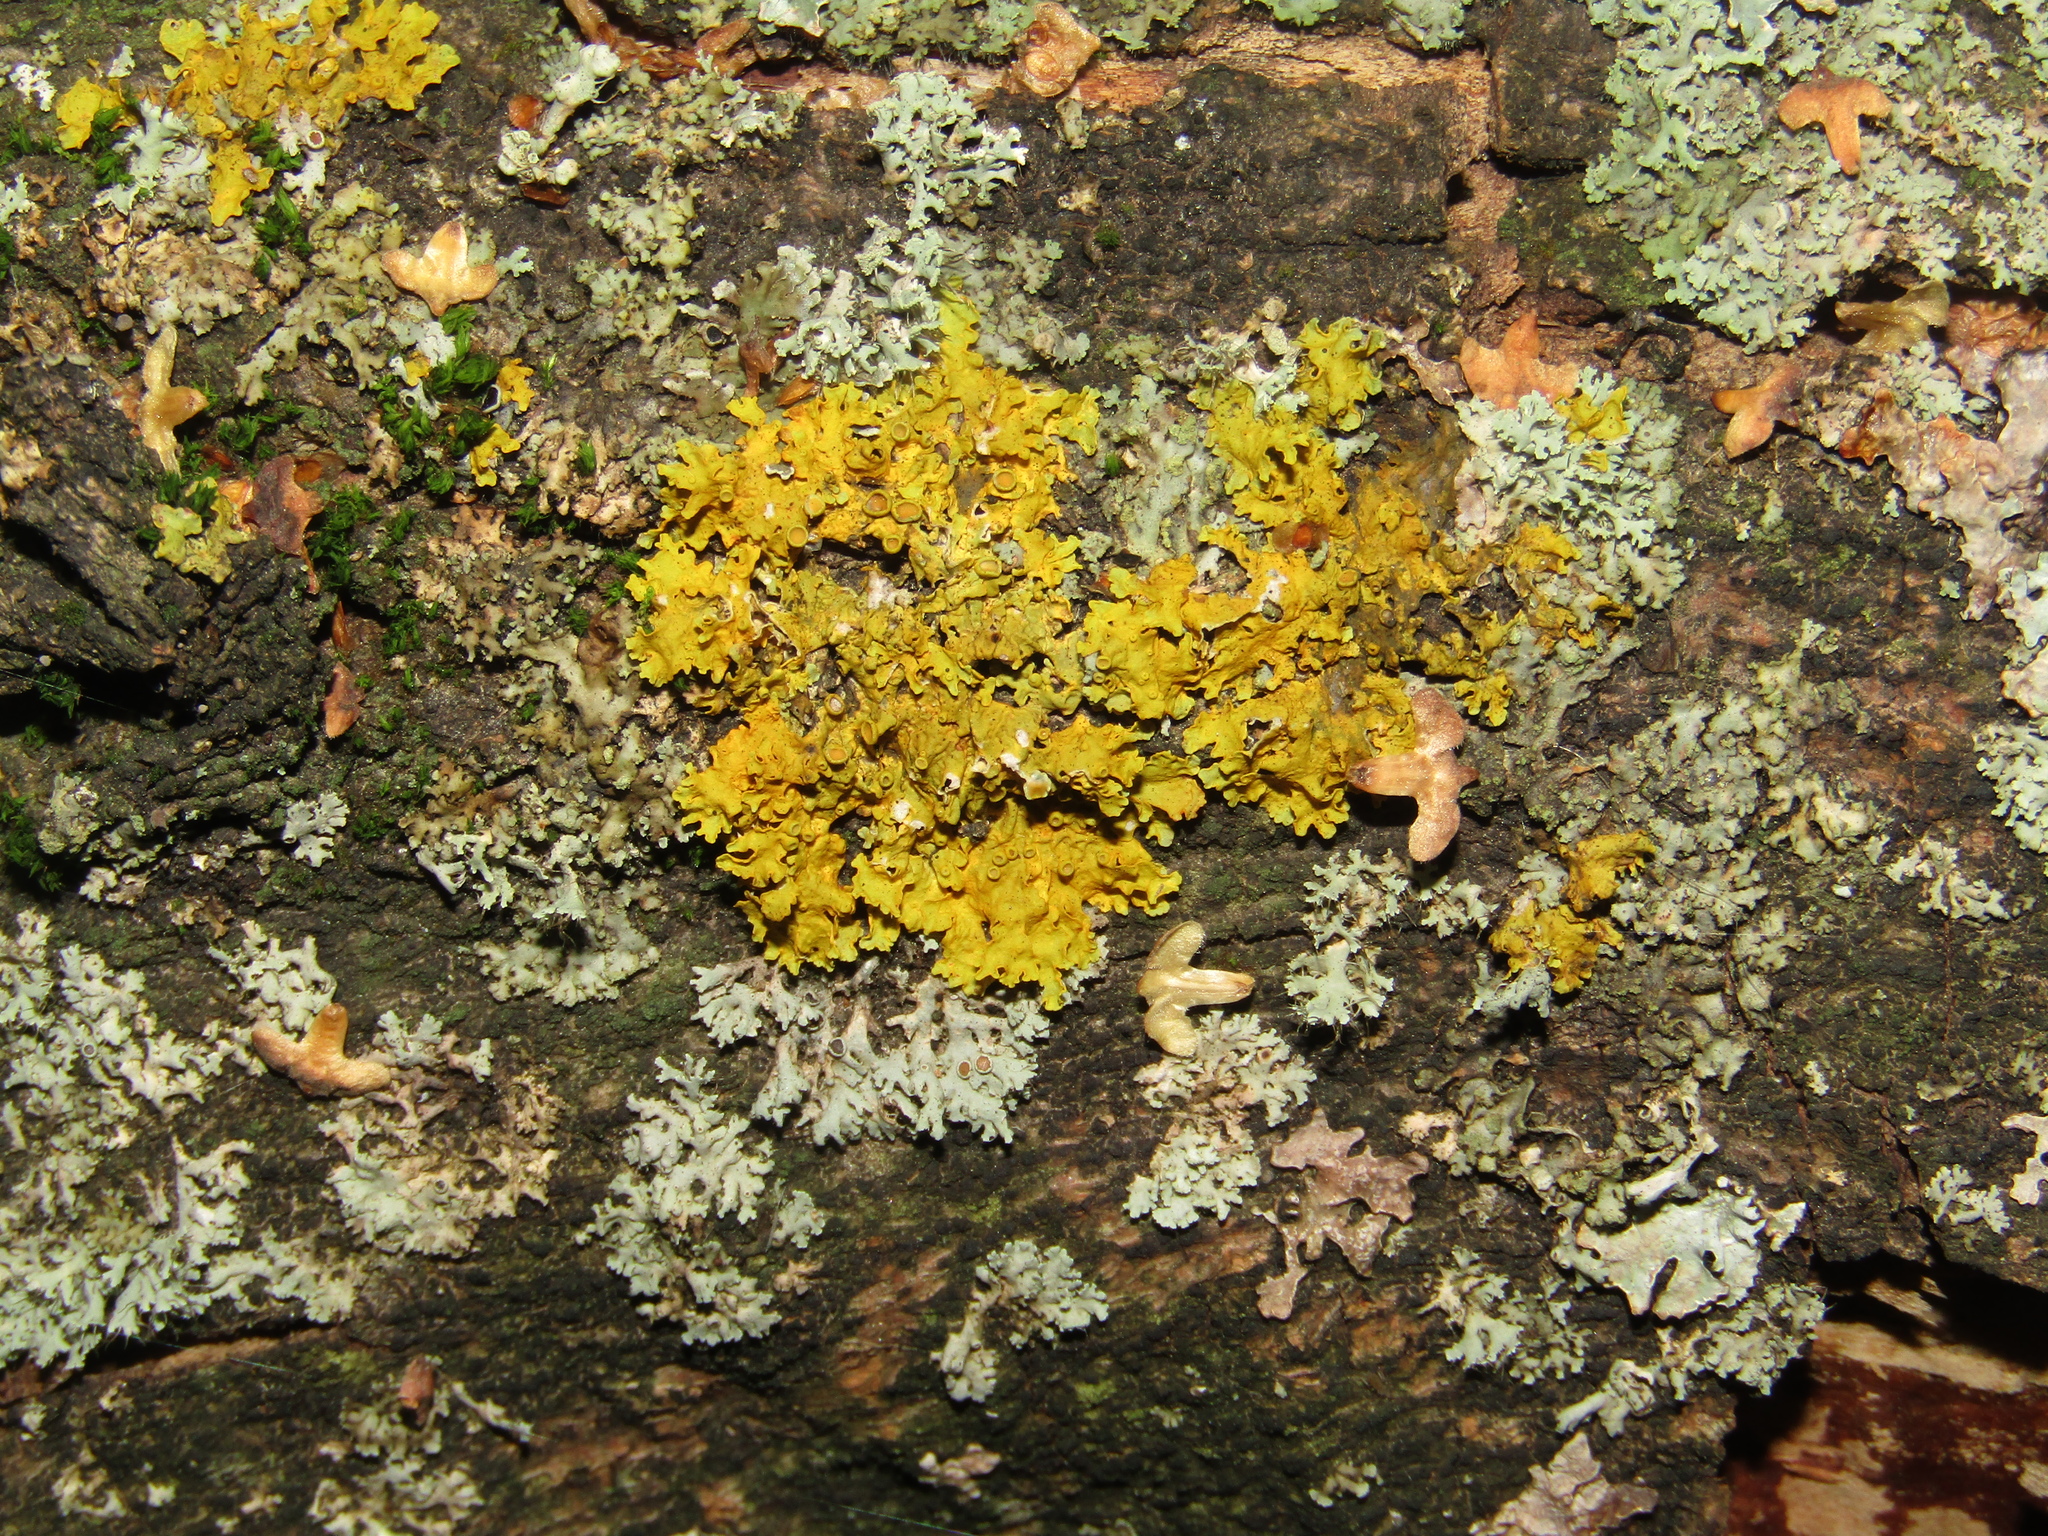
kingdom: Fungi
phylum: Ascomycota
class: Lecanoromycetes
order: Teloschistales
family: Teloschistaceae
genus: Xanthoria
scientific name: Xanthoria parietina
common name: Common orange lichen
